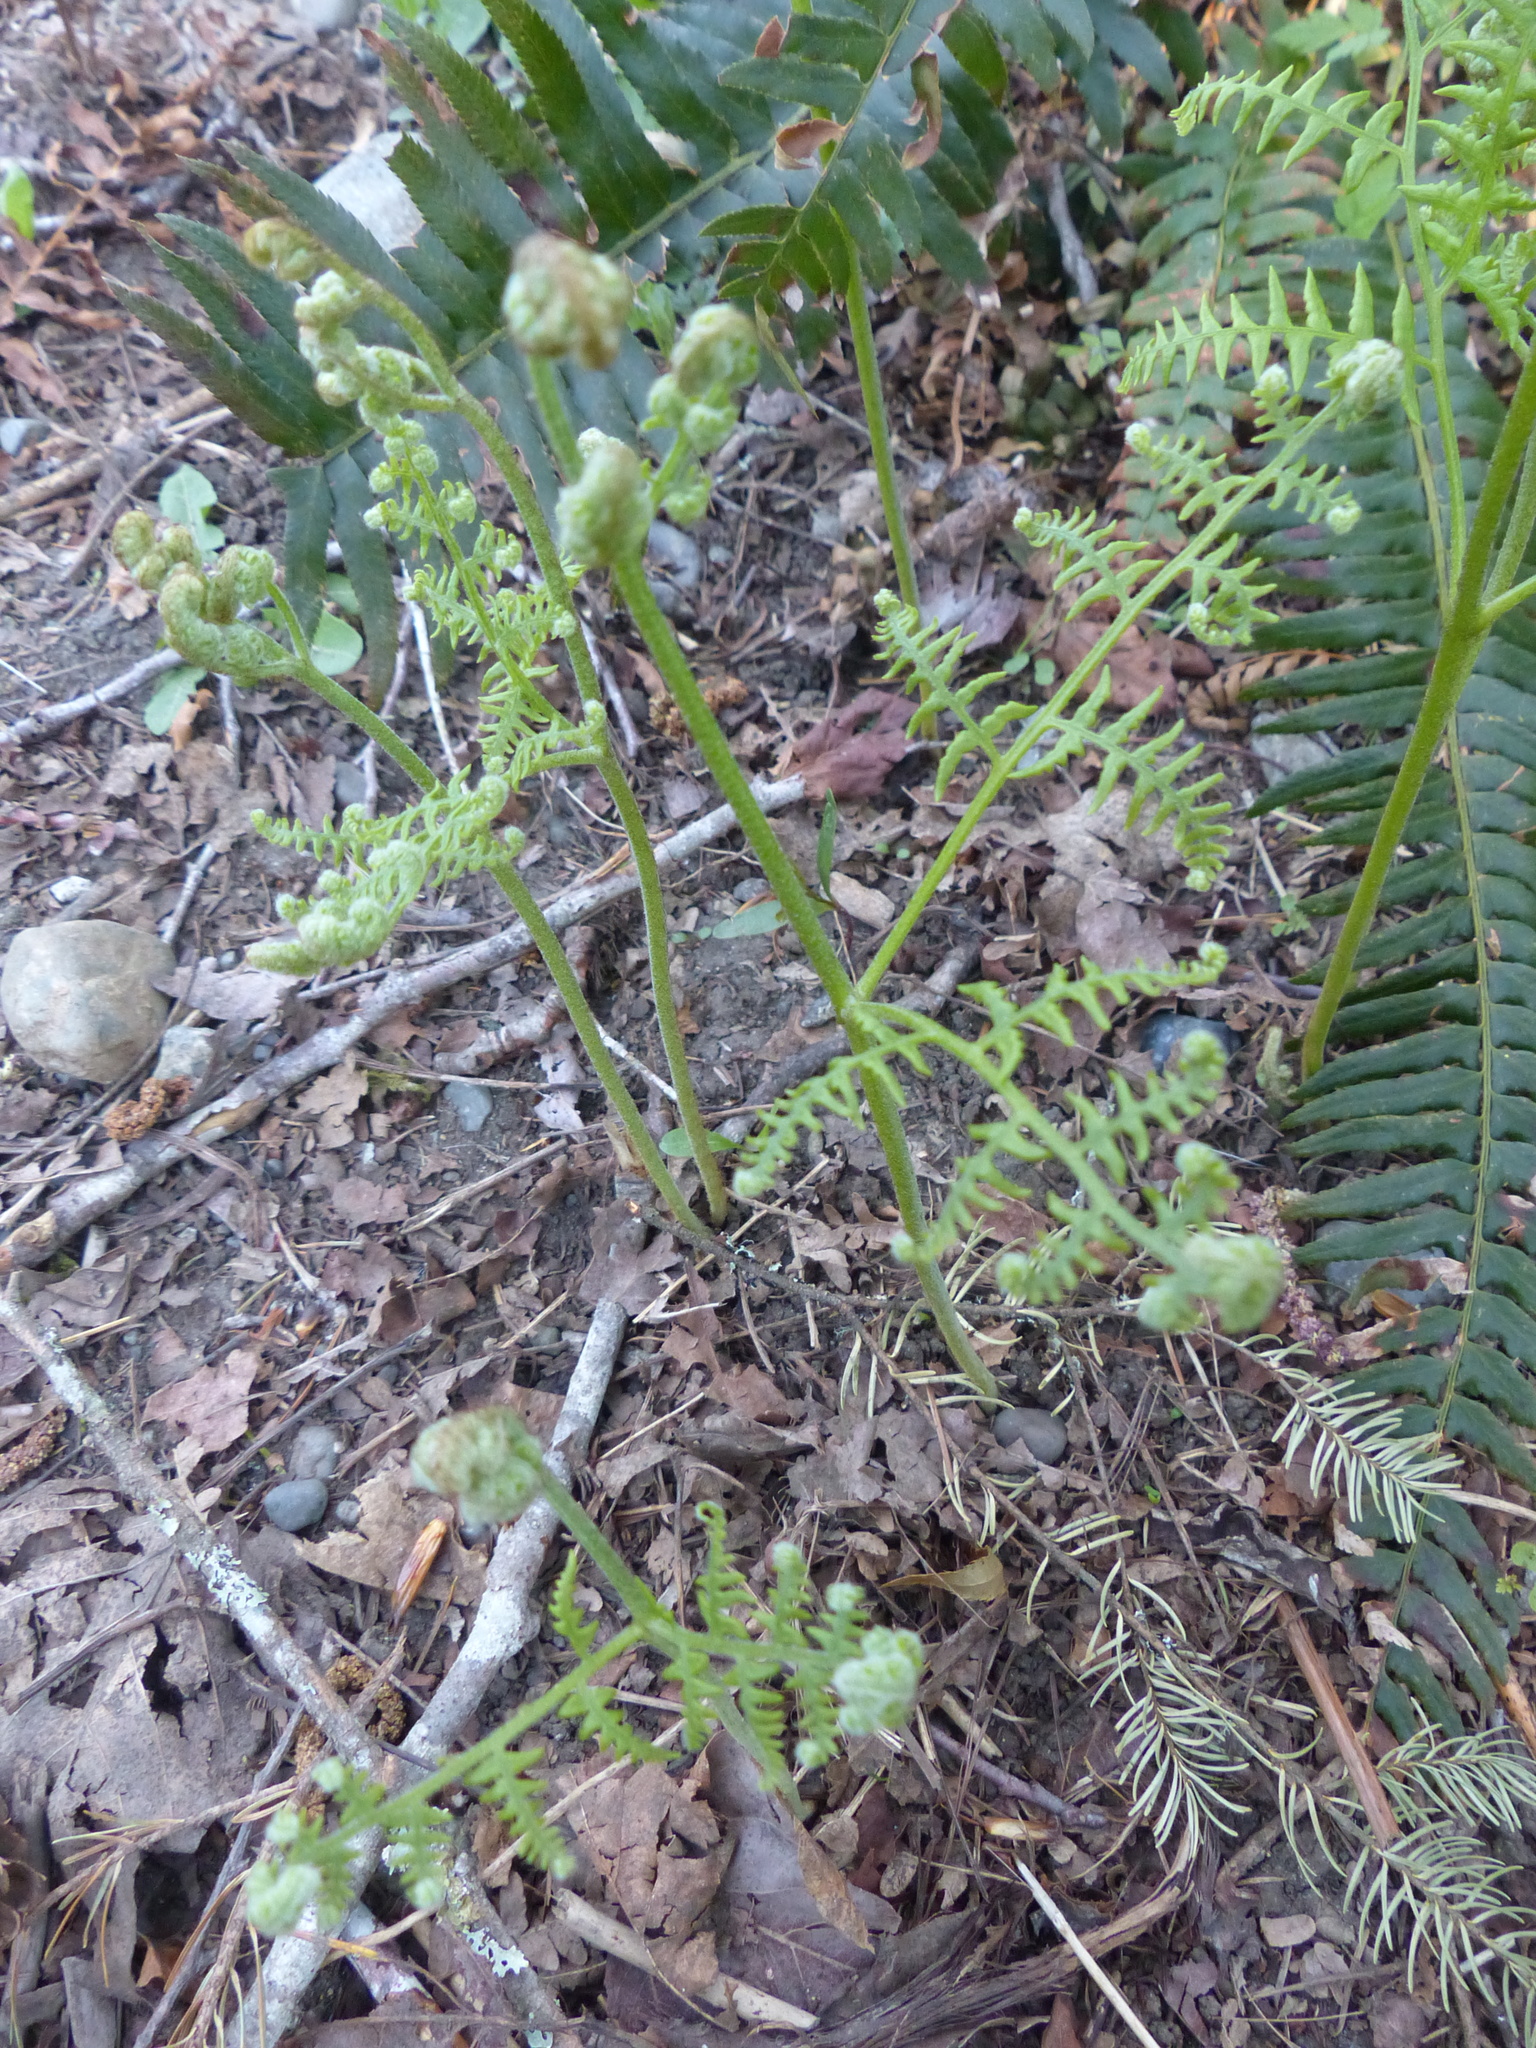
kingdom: Plantae
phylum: Tracheophyta
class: Polypodiopsida
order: Polypodiales
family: Dennstaedtiaceae
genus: Pteridium
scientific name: Pteridium aquilinum
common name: Bracken
